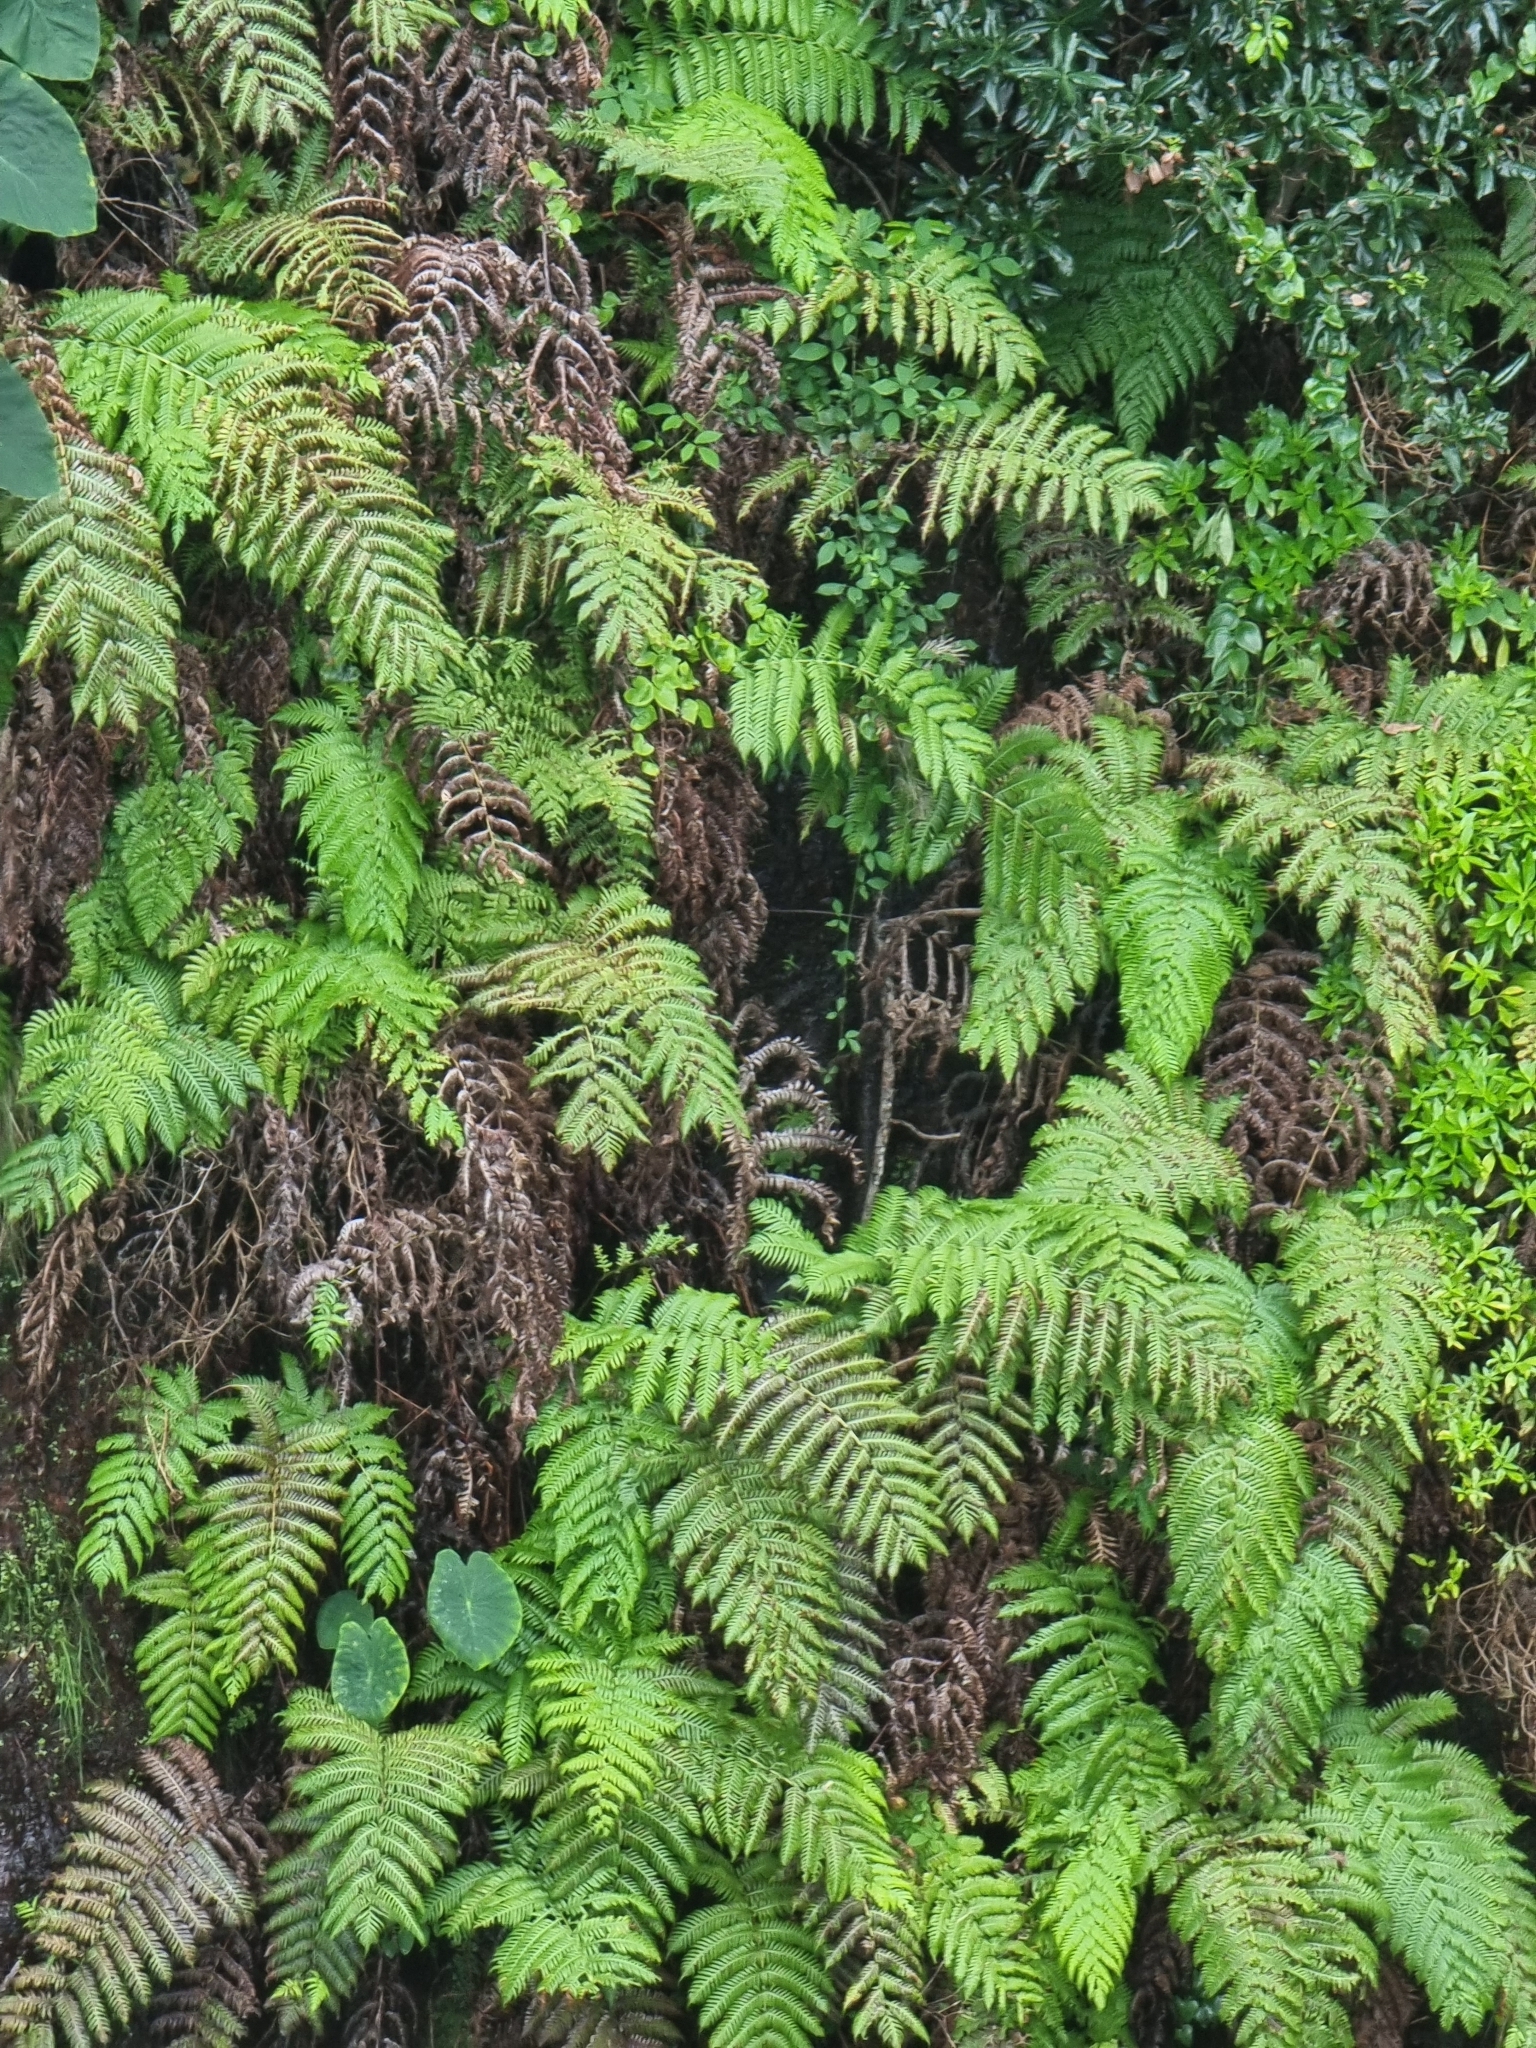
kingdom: Plantae
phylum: Tracheophyta
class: Polypodiopsida
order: Polypodiales
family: Blechnaceae
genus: Woodwardia
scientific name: Woodwardia radicans
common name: Rooting chainfern
